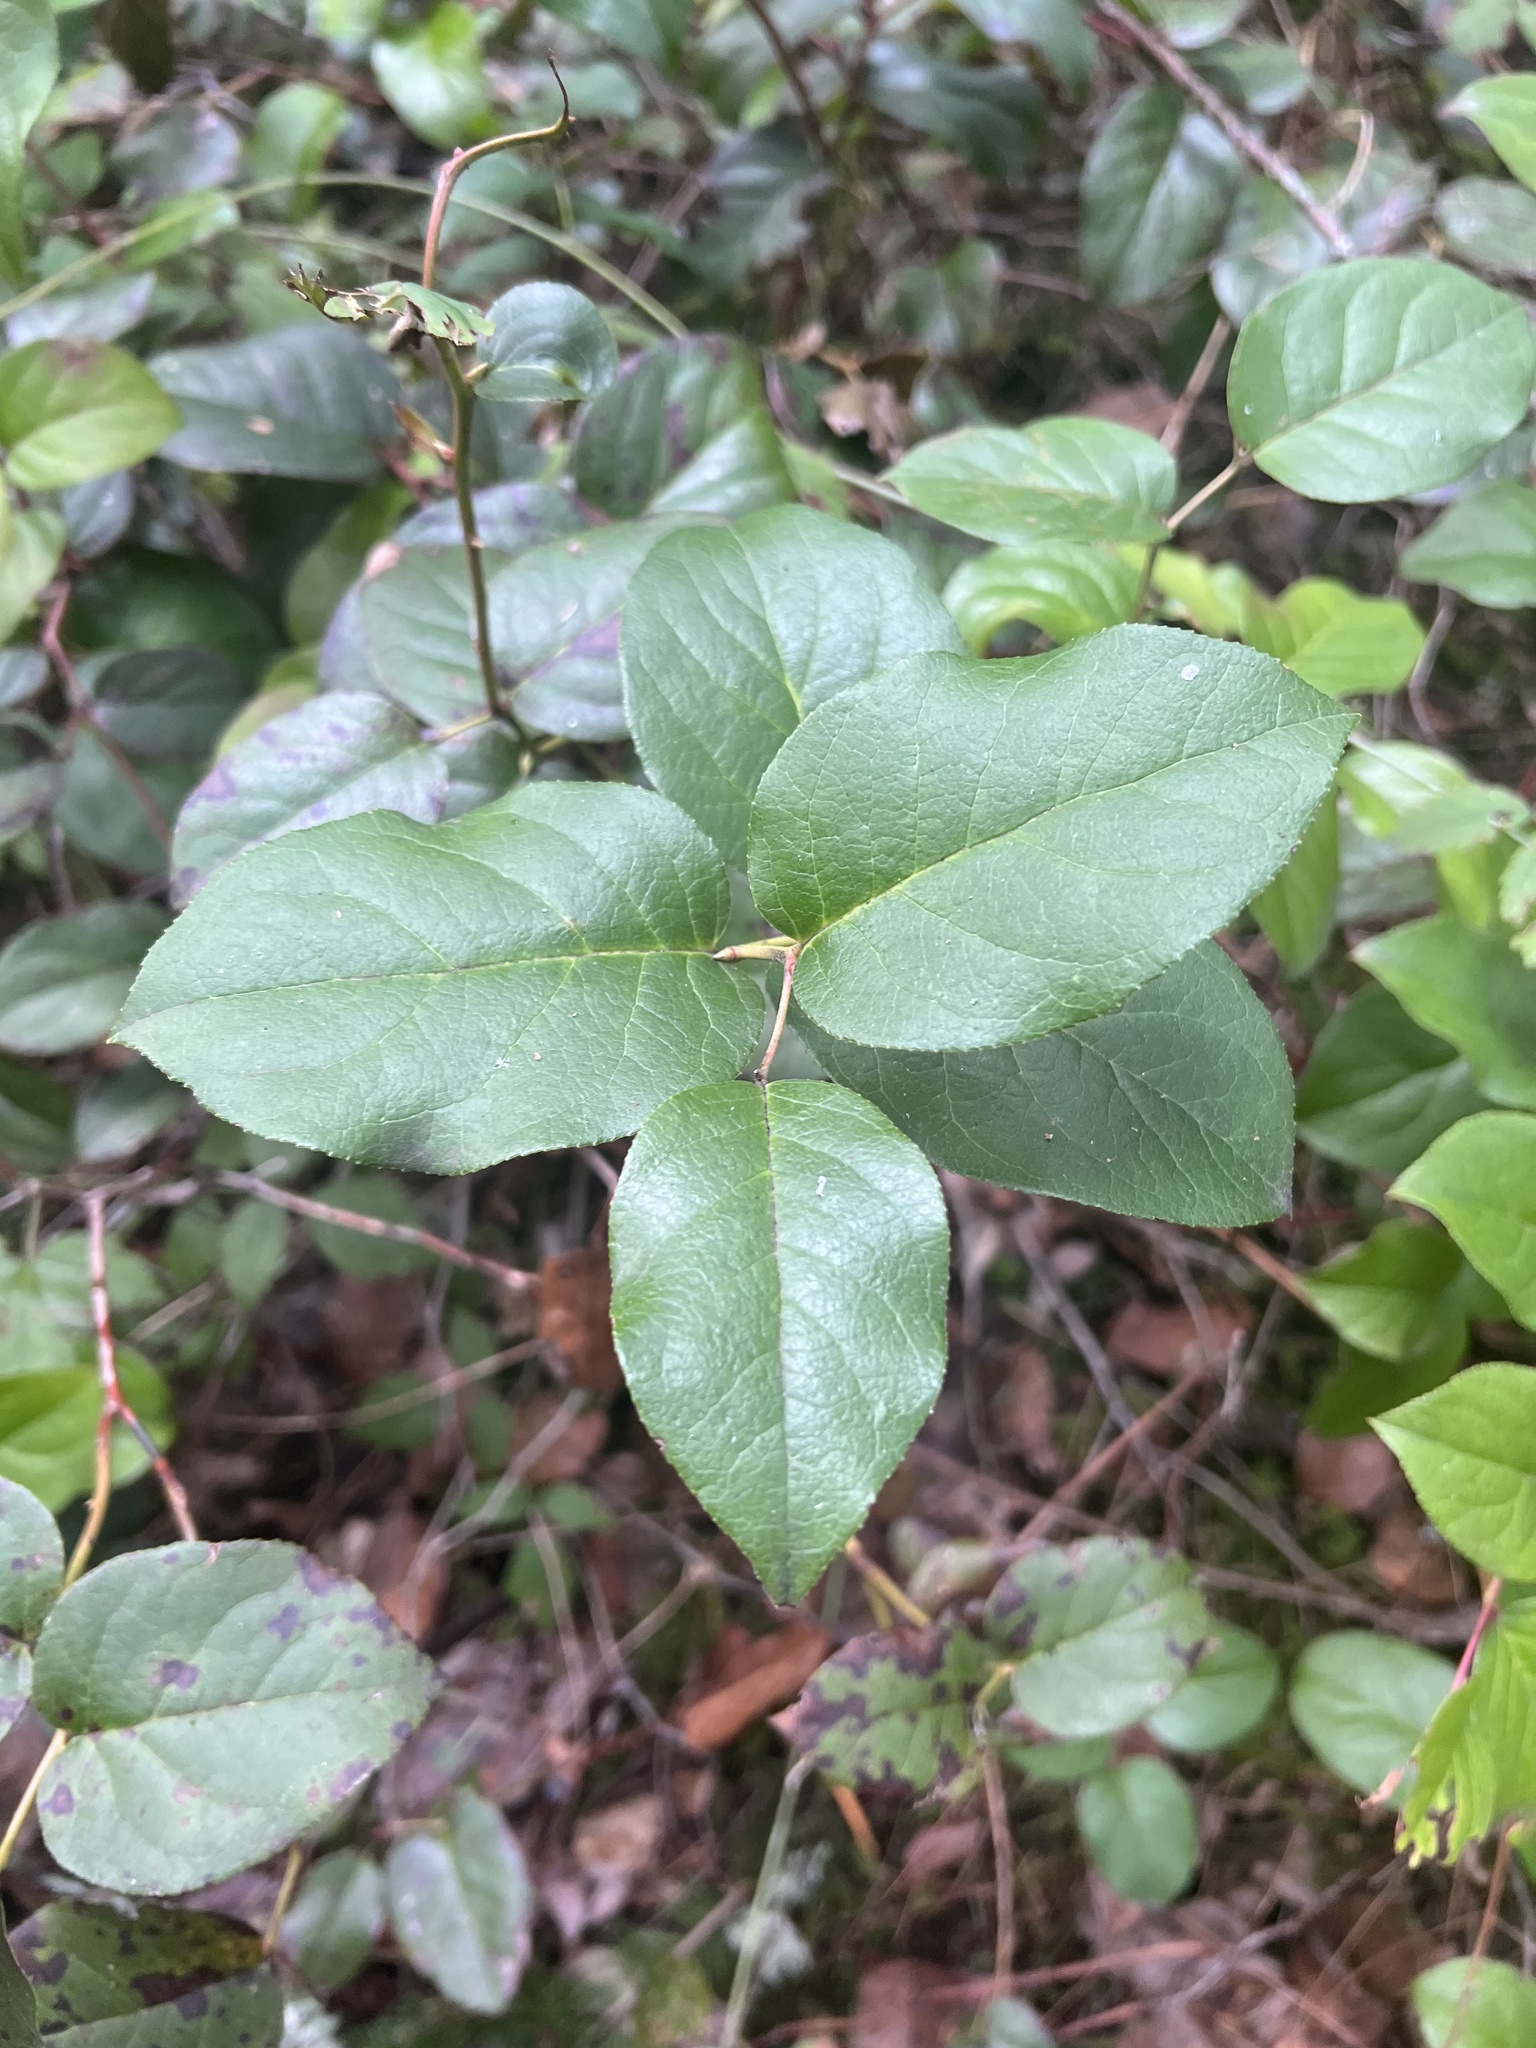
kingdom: Plantae
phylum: Tracheophyta
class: Magnoliopsida
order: Ericales
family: Ericaceae
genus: Gaultheria
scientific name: Gaultheria shallon
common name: Shallon
